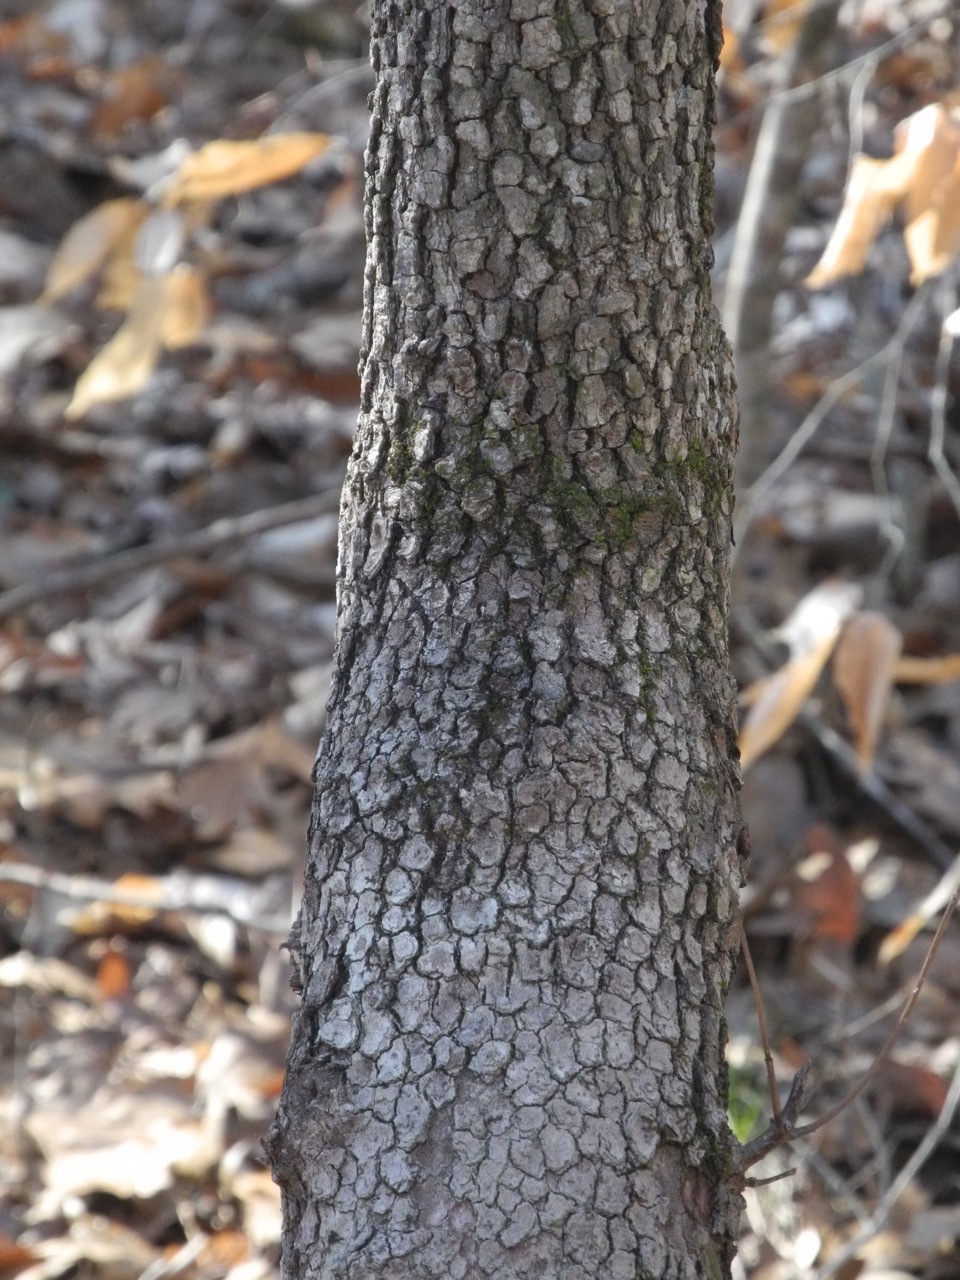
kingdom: Plantae
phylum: Tracheophyta
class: Magnoliopsida
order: Cornales
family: Cornaceae
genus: Cornus
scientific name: Cornus florida
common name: Flowering dogwood
